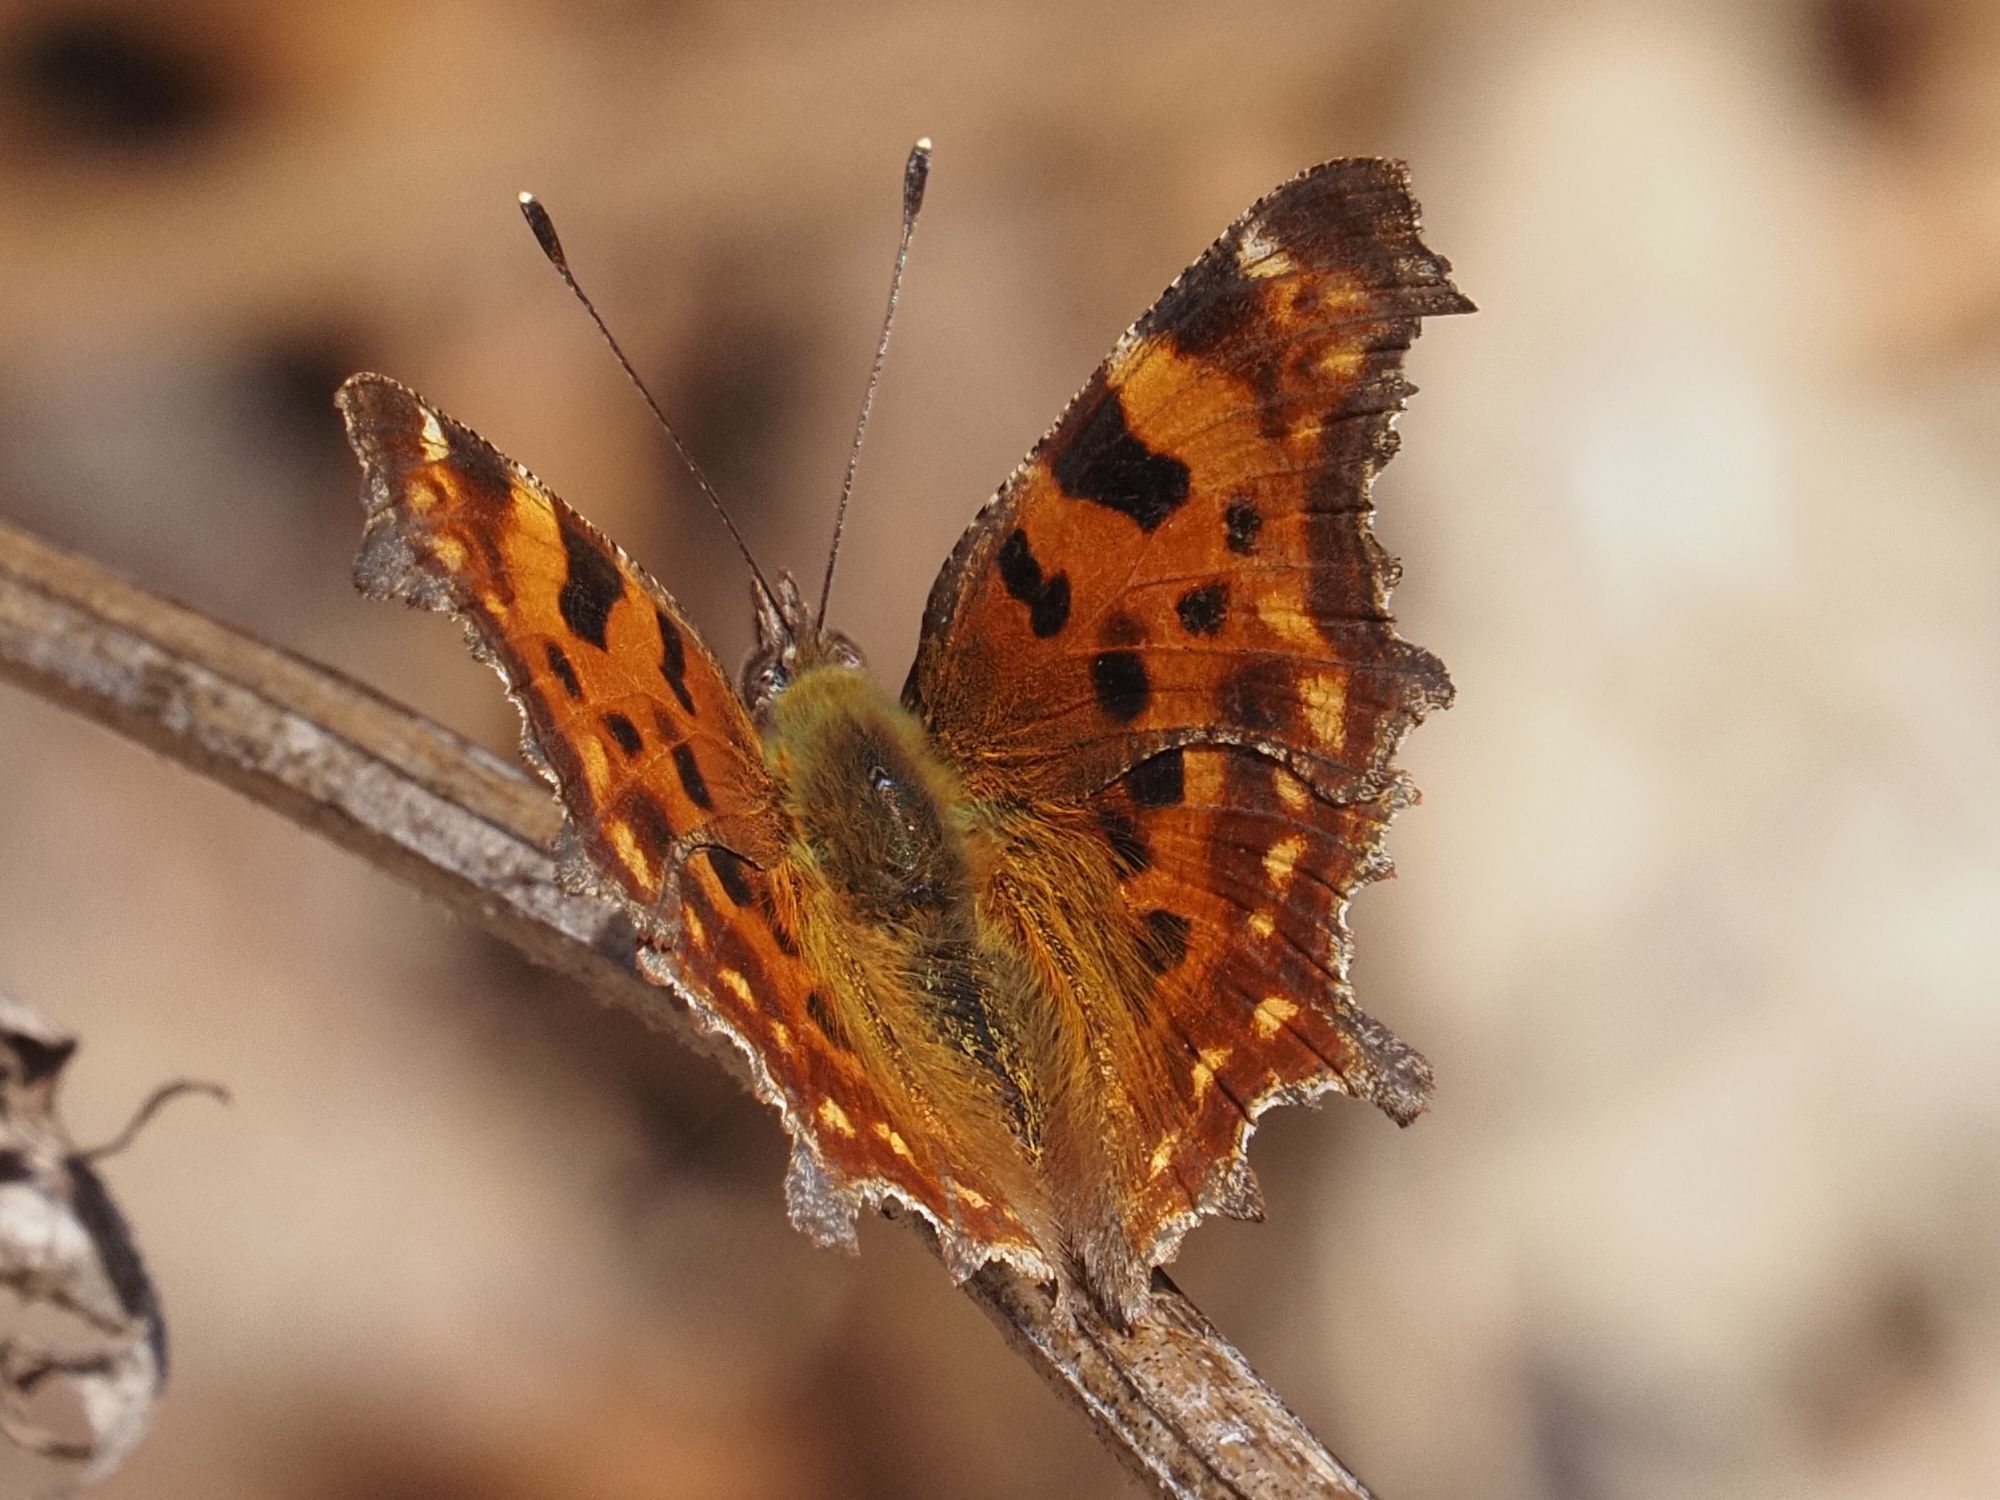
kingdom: Animalia
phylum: Arthropoda
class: Insecta
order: Lepidoptera
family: Nymphalidae
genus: Polygonia
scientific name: Polygonia c-album
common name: Comma
